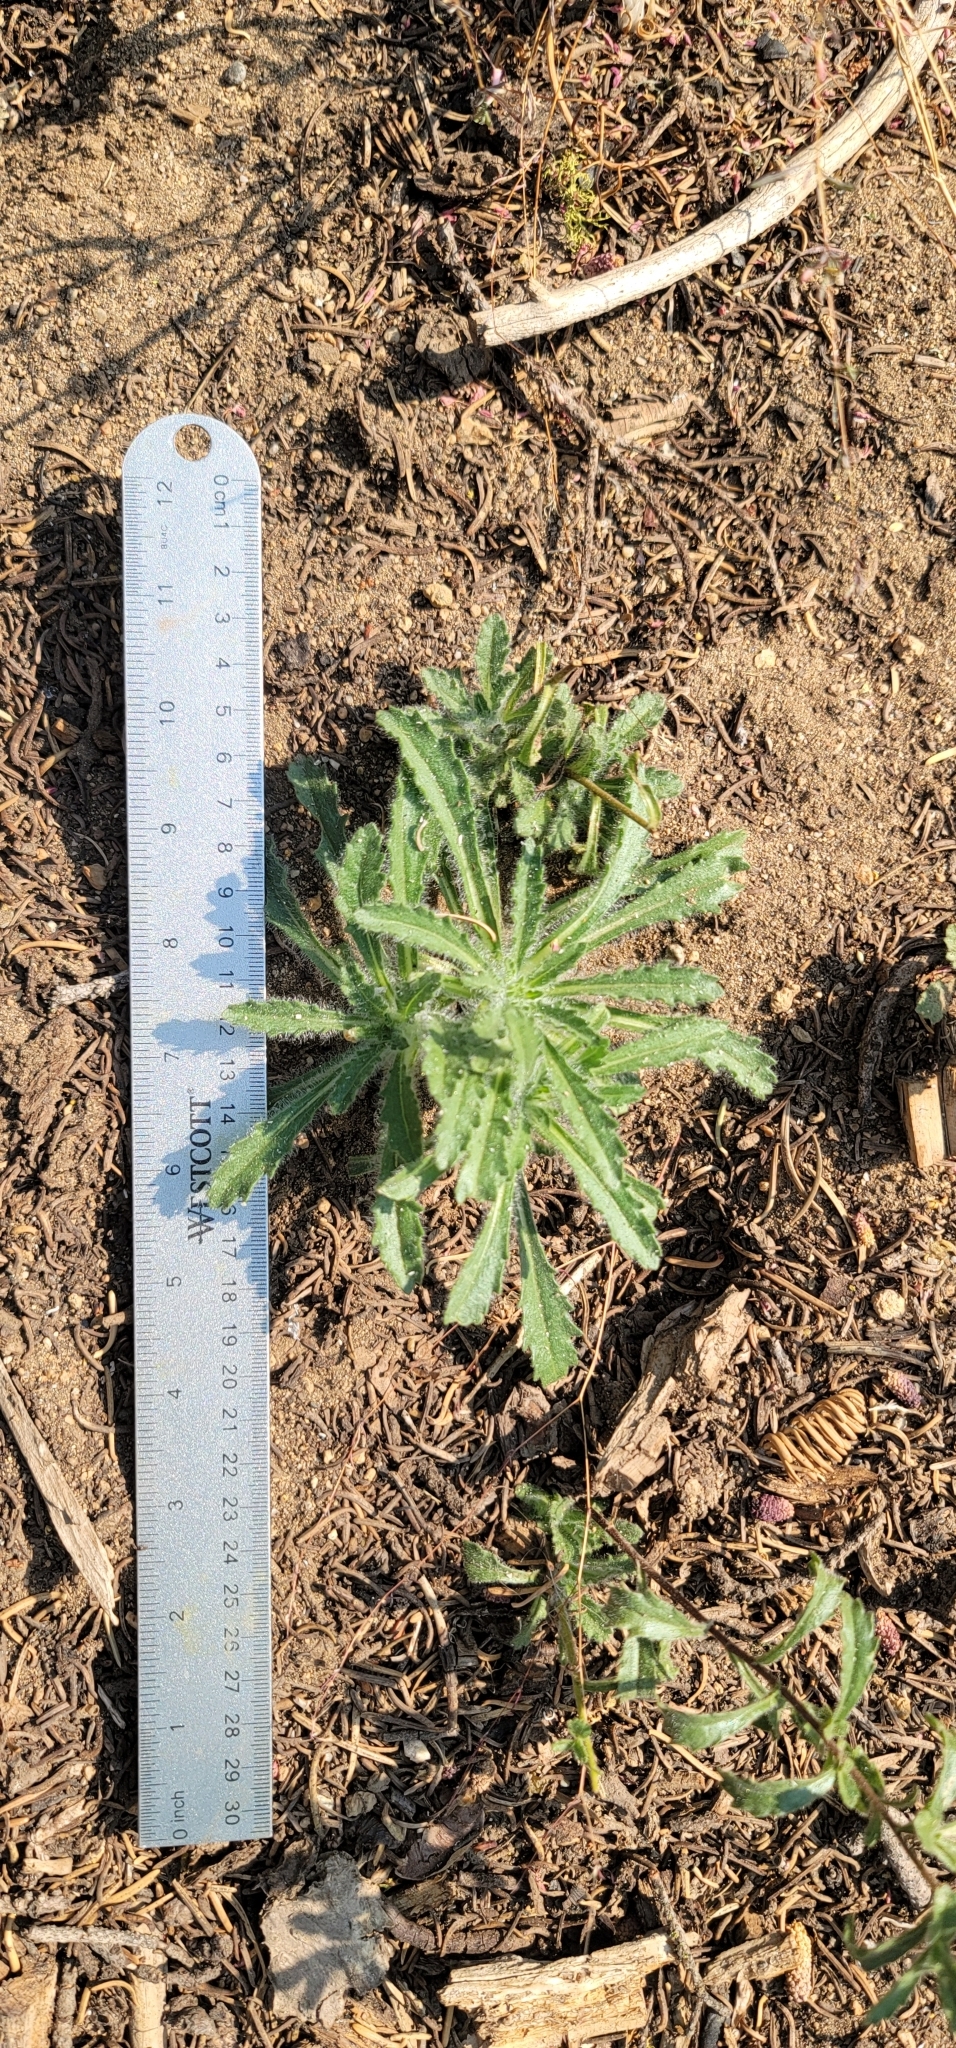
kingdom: Plantae
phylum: Tracheophyta
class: Magnoliopsida
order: Asterales
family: Asteraceae
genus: Hulsea
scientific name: Hulsea brevifolia
